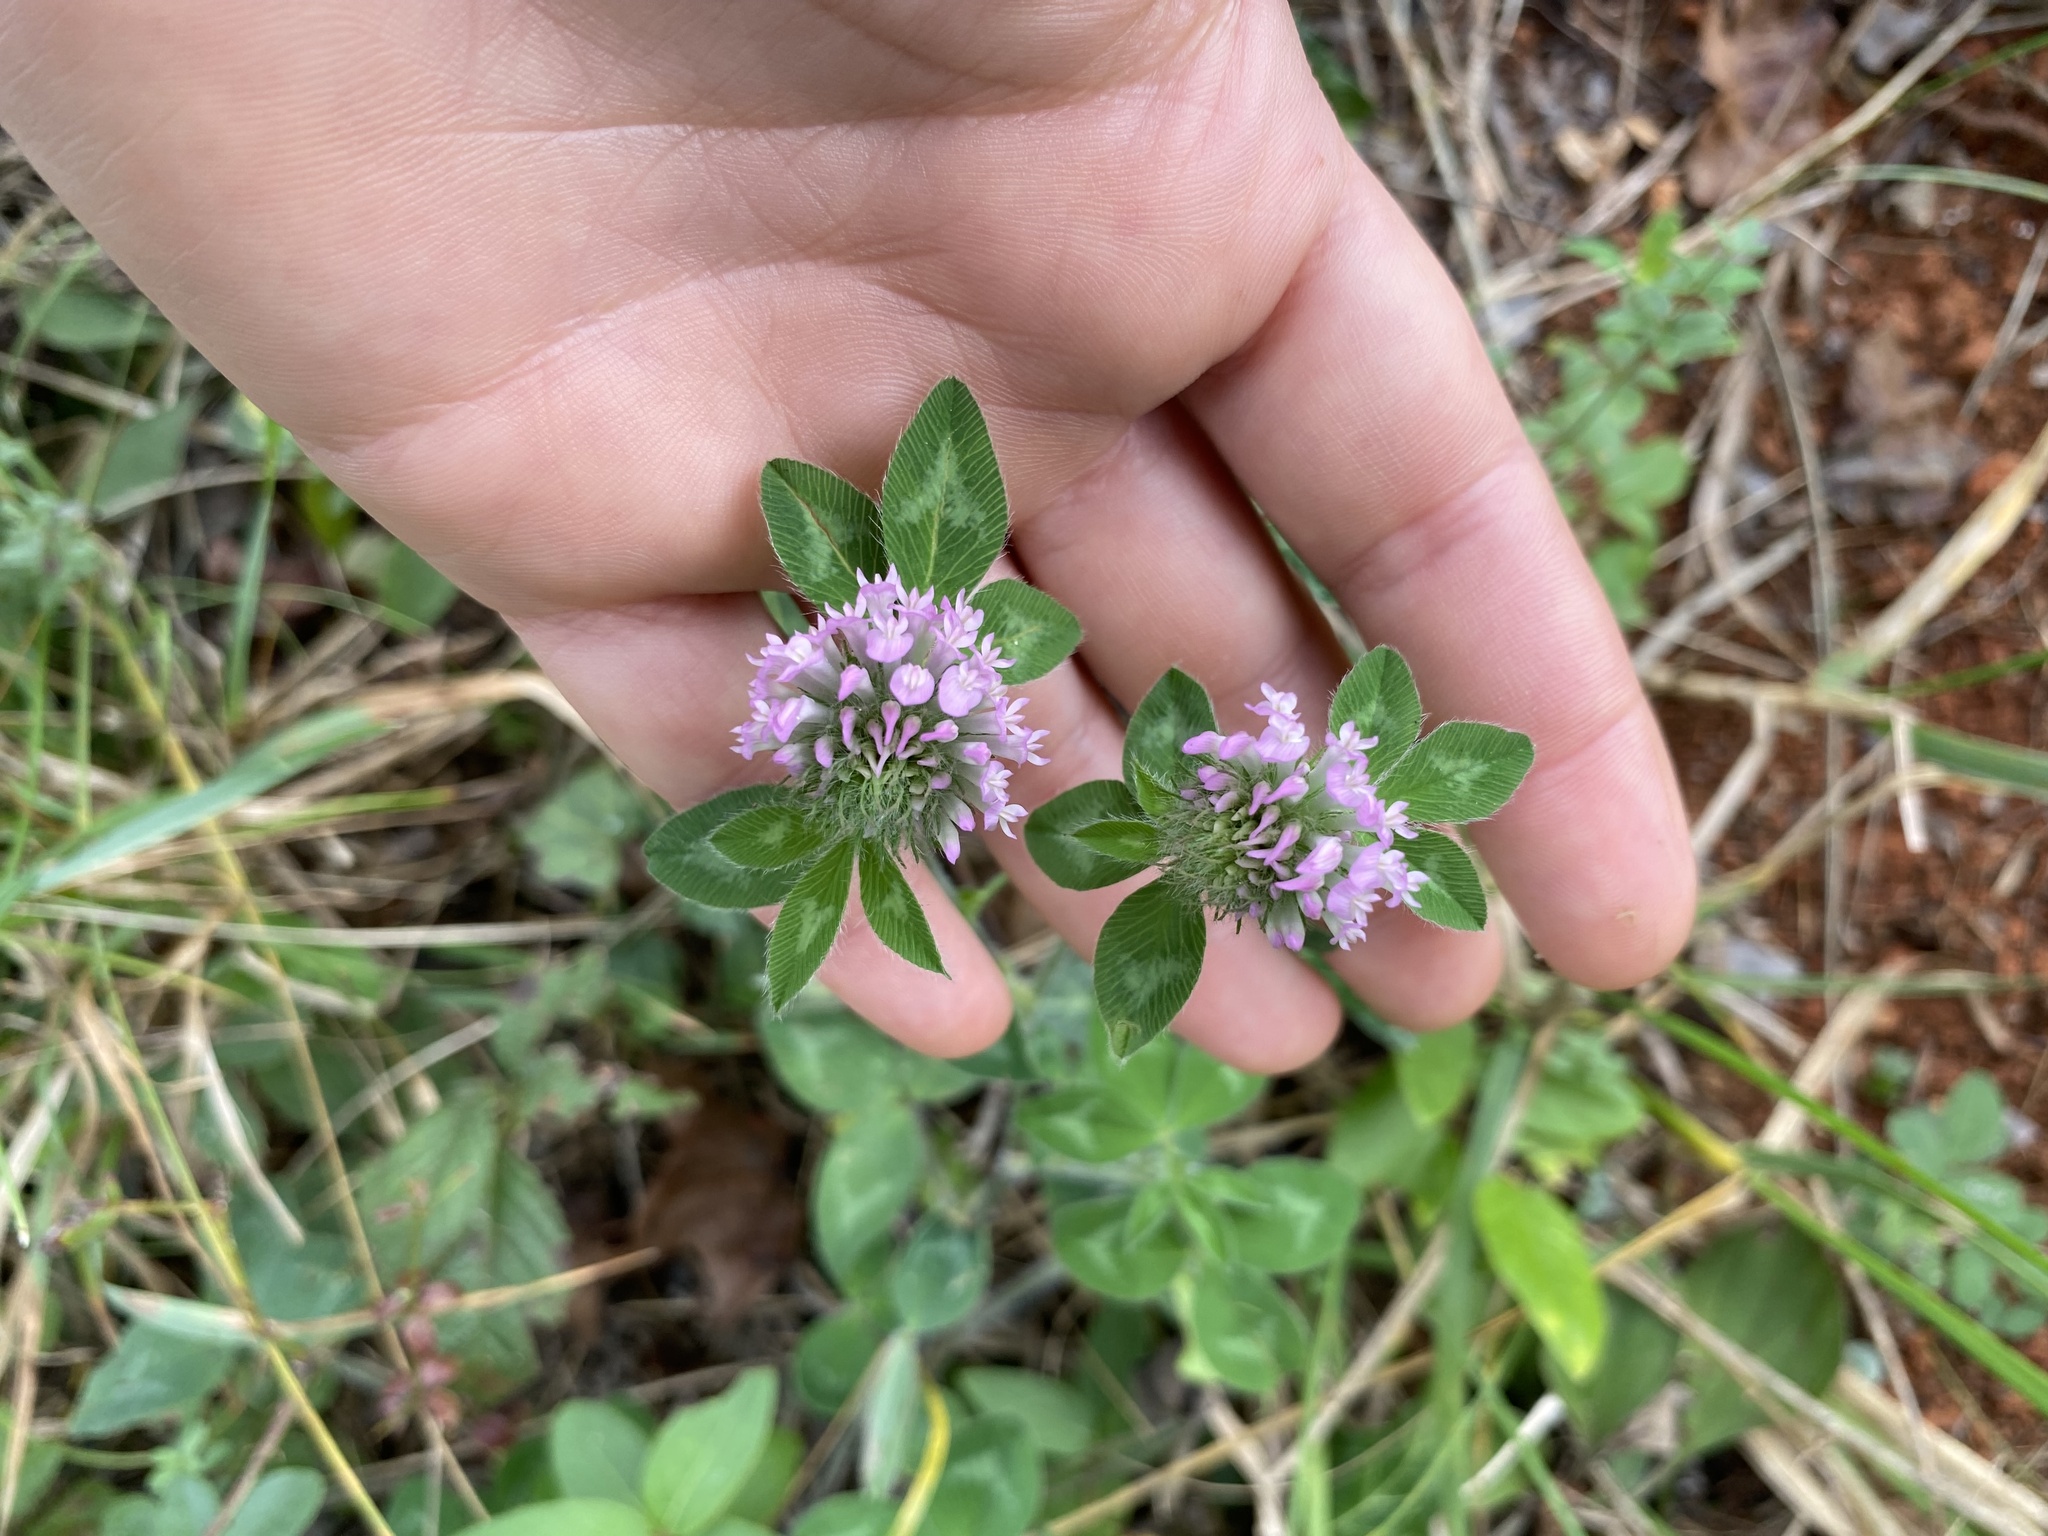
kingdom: Plantae
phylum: Tracheophyta
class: Magnoliopsida
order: Fabales
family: Fabaceae
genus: Trifolium
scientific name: Trifolium pratense
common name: Red clover
